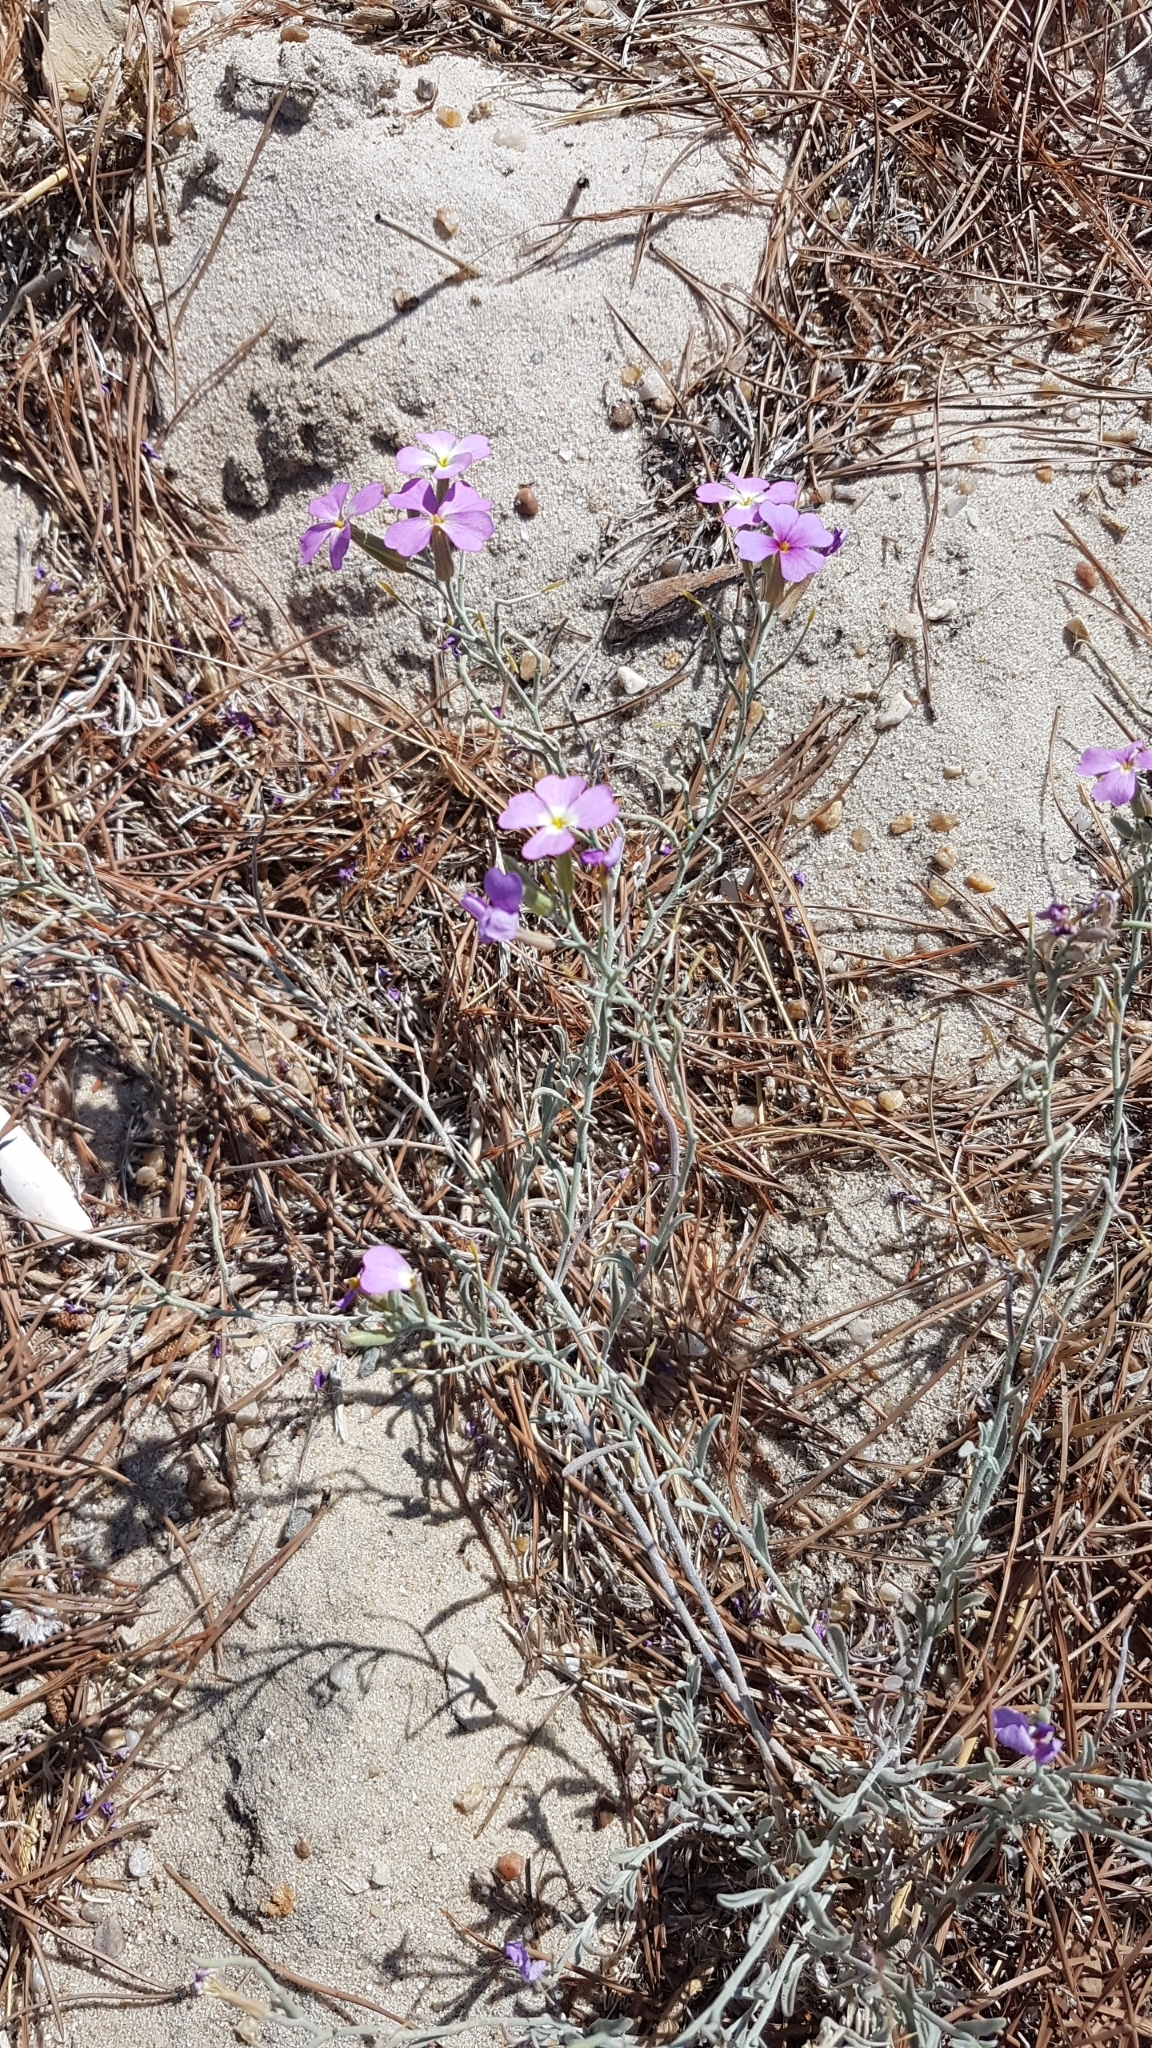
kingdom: Plantae
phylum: Tracheophyta
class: Magnoliopsida
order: Brassicales
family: Brassicaceae
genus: Marcuskochia
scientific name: Marcuskochia littorea
